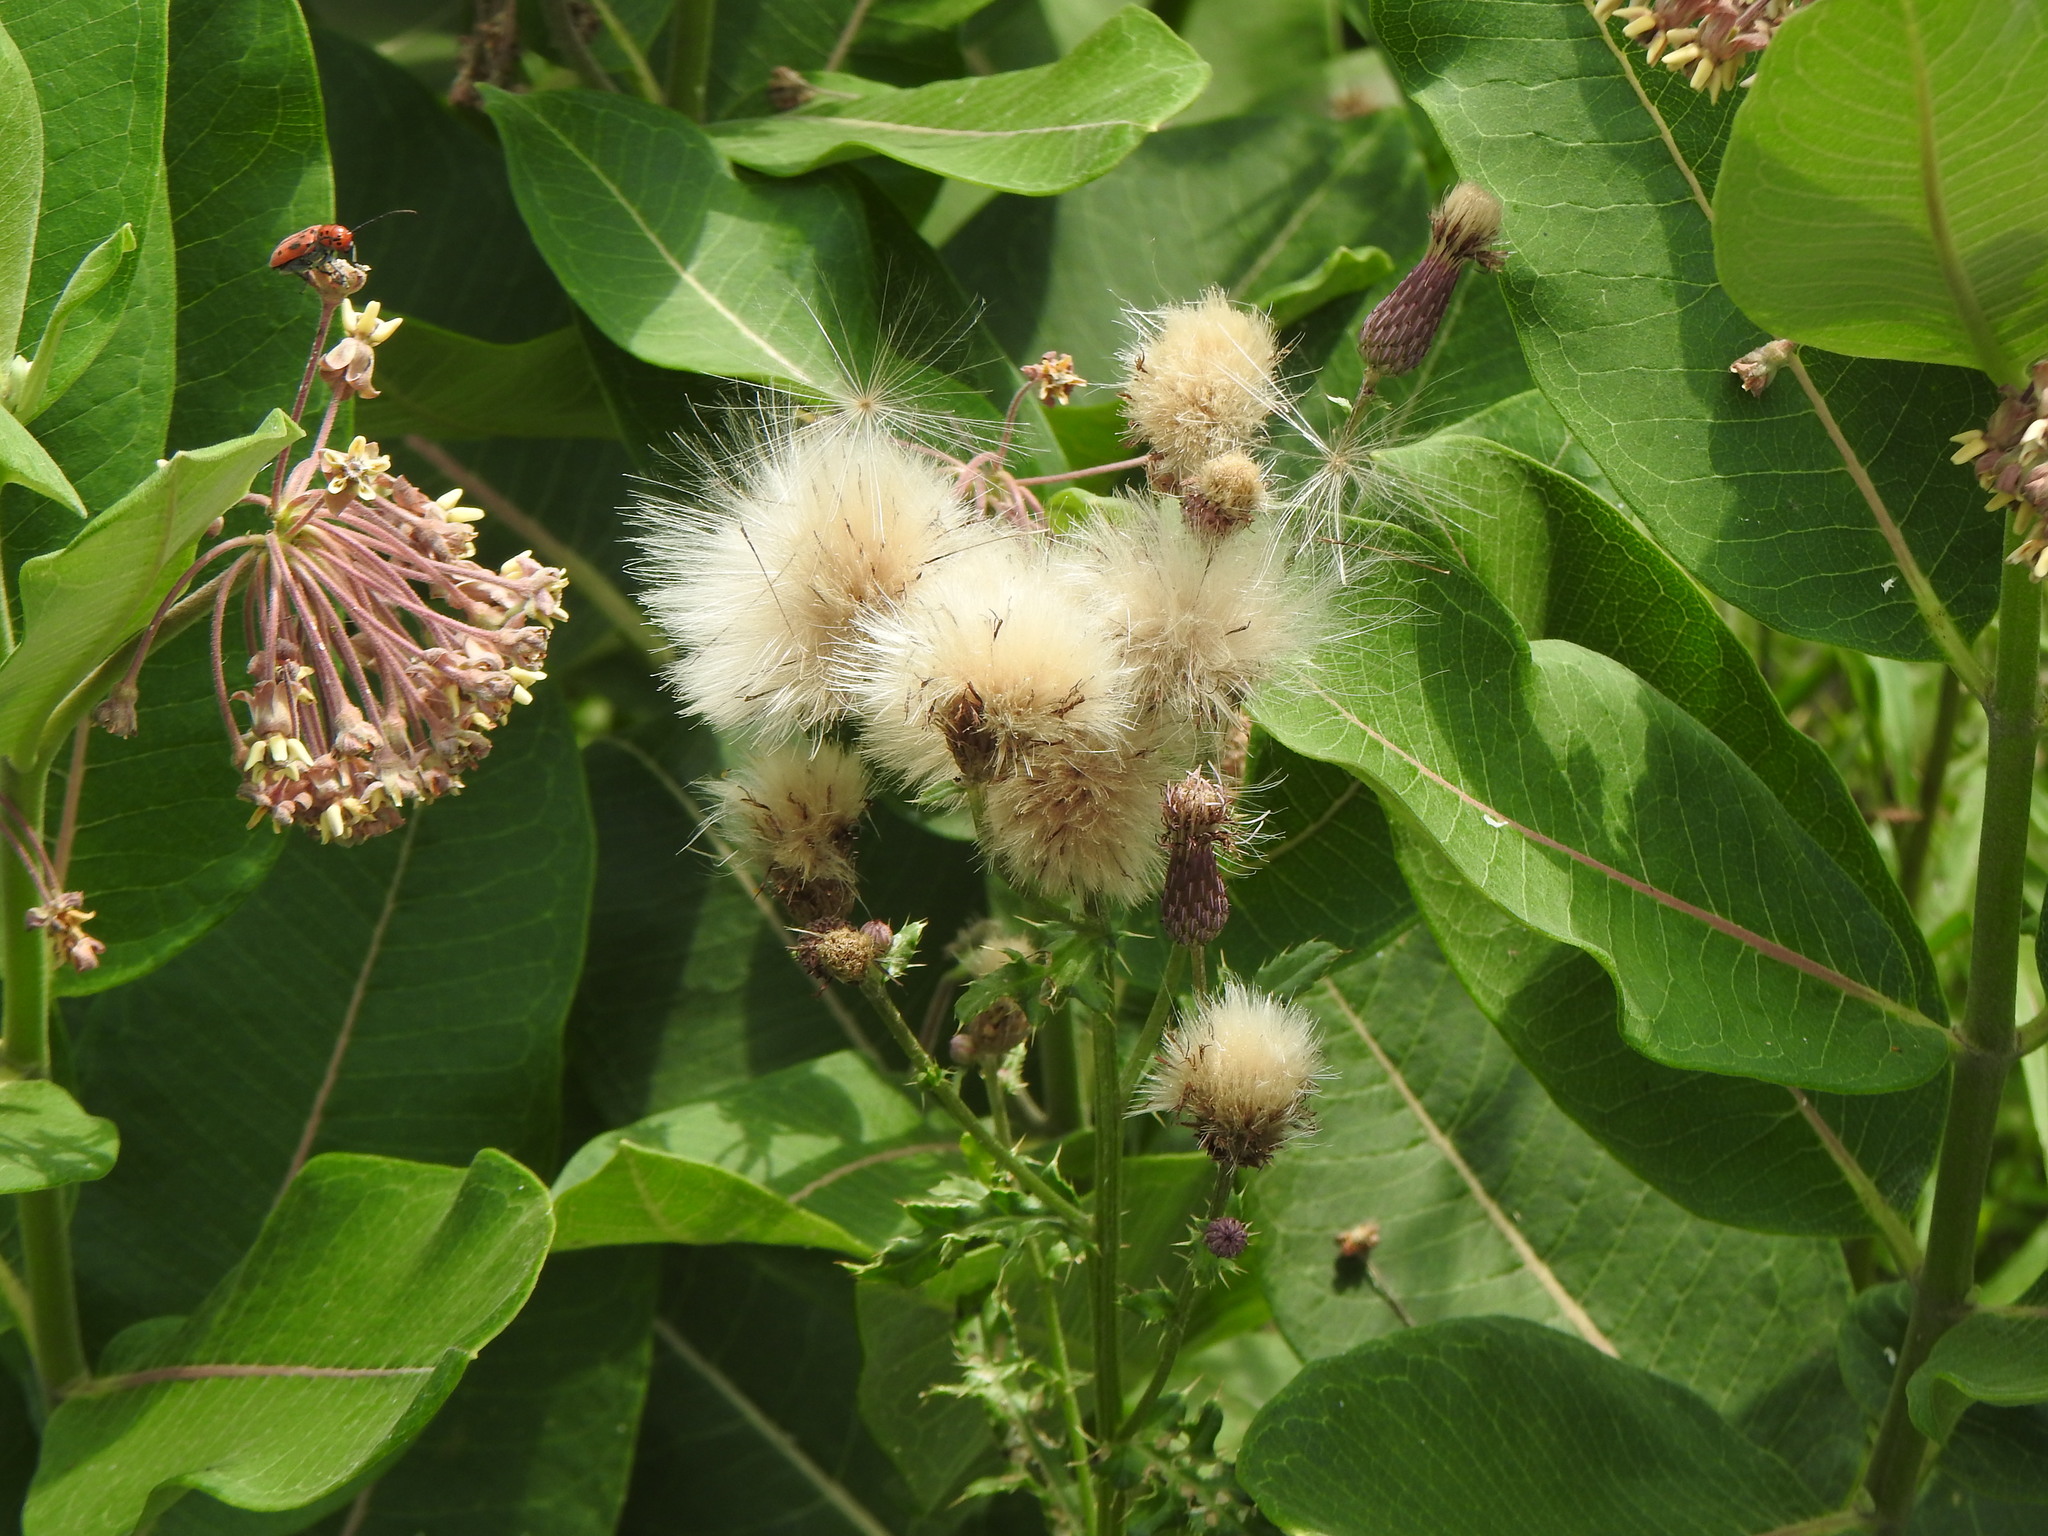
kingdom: Plantae
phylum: Tracheophyta
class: Magnoliopsida
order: Asterales
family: Asteraceae
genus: Cirsium
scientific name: Cirsium arvense
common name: Creeping thistle
